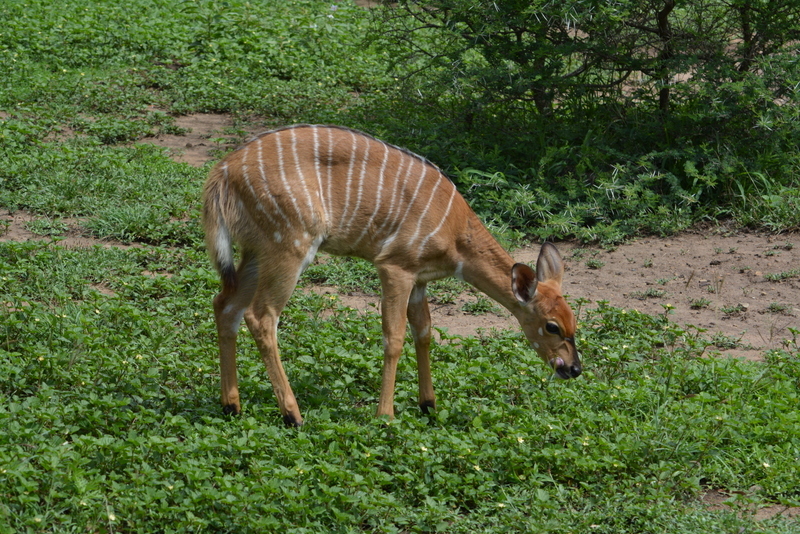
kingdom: Animalia
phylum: Chordata
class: Mammalia
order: Artiodactyla
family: Bovidae
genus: Tragelaphus
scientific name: Tragelaphus angasii
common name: Nyala
